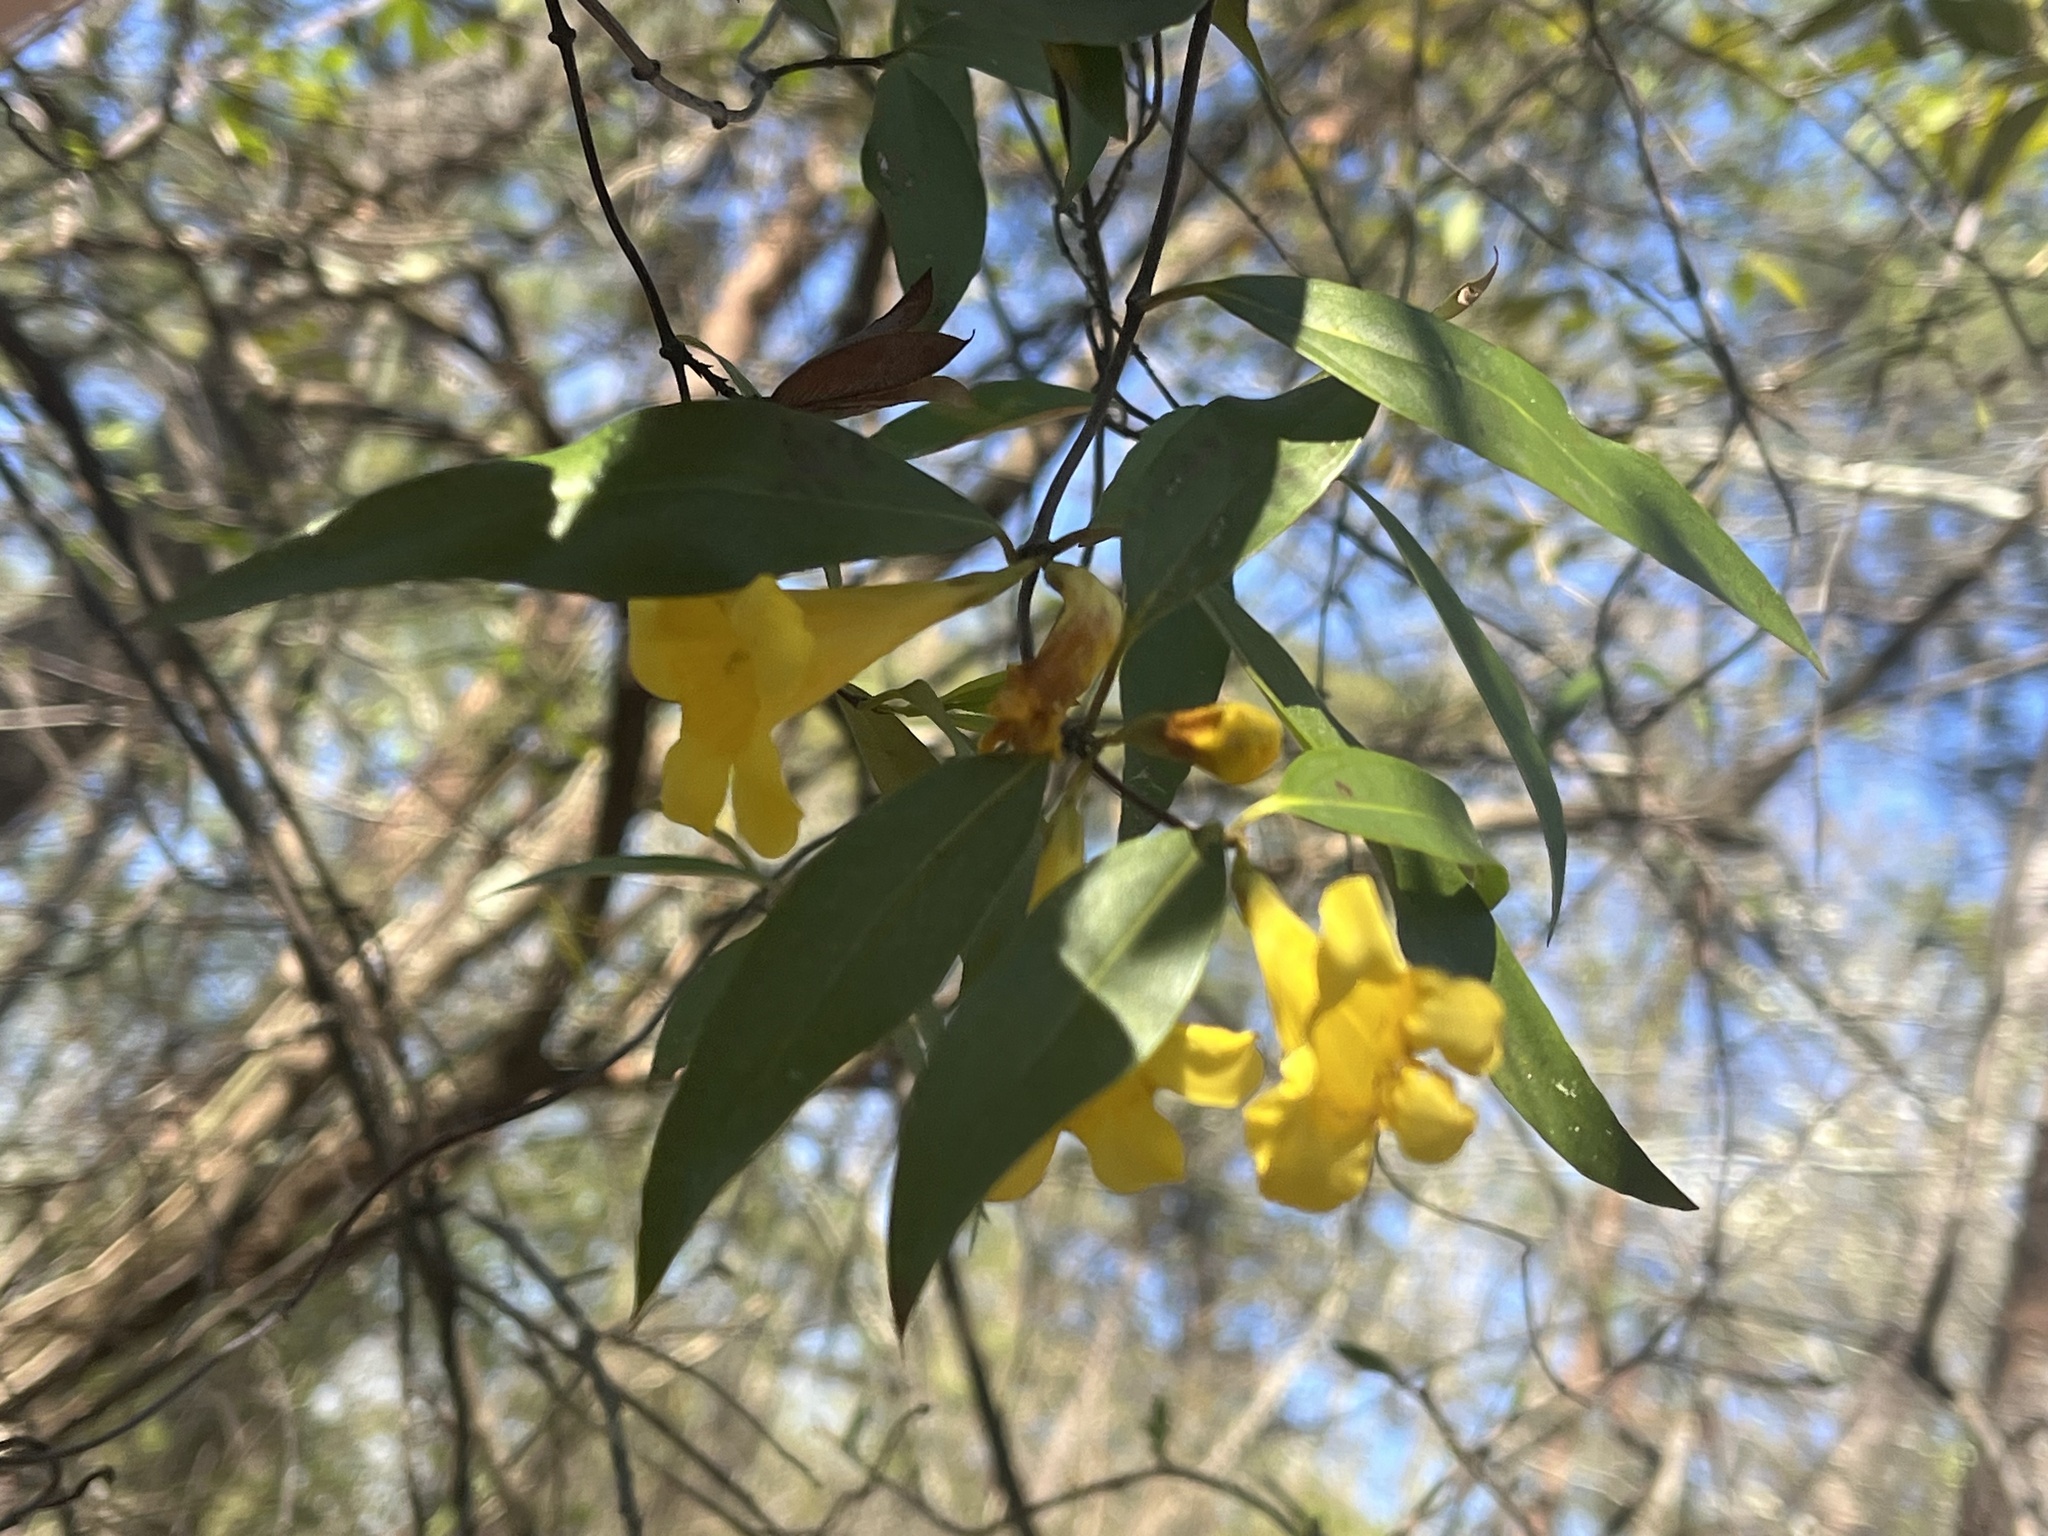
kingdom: Plantae
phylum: Tracheophyta
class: Magnoliopsida
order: Gentianales
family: Gelsemiaceae
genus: Gelsemium
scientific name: Gelsemium sempervirens
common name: Carolina-jasmine
